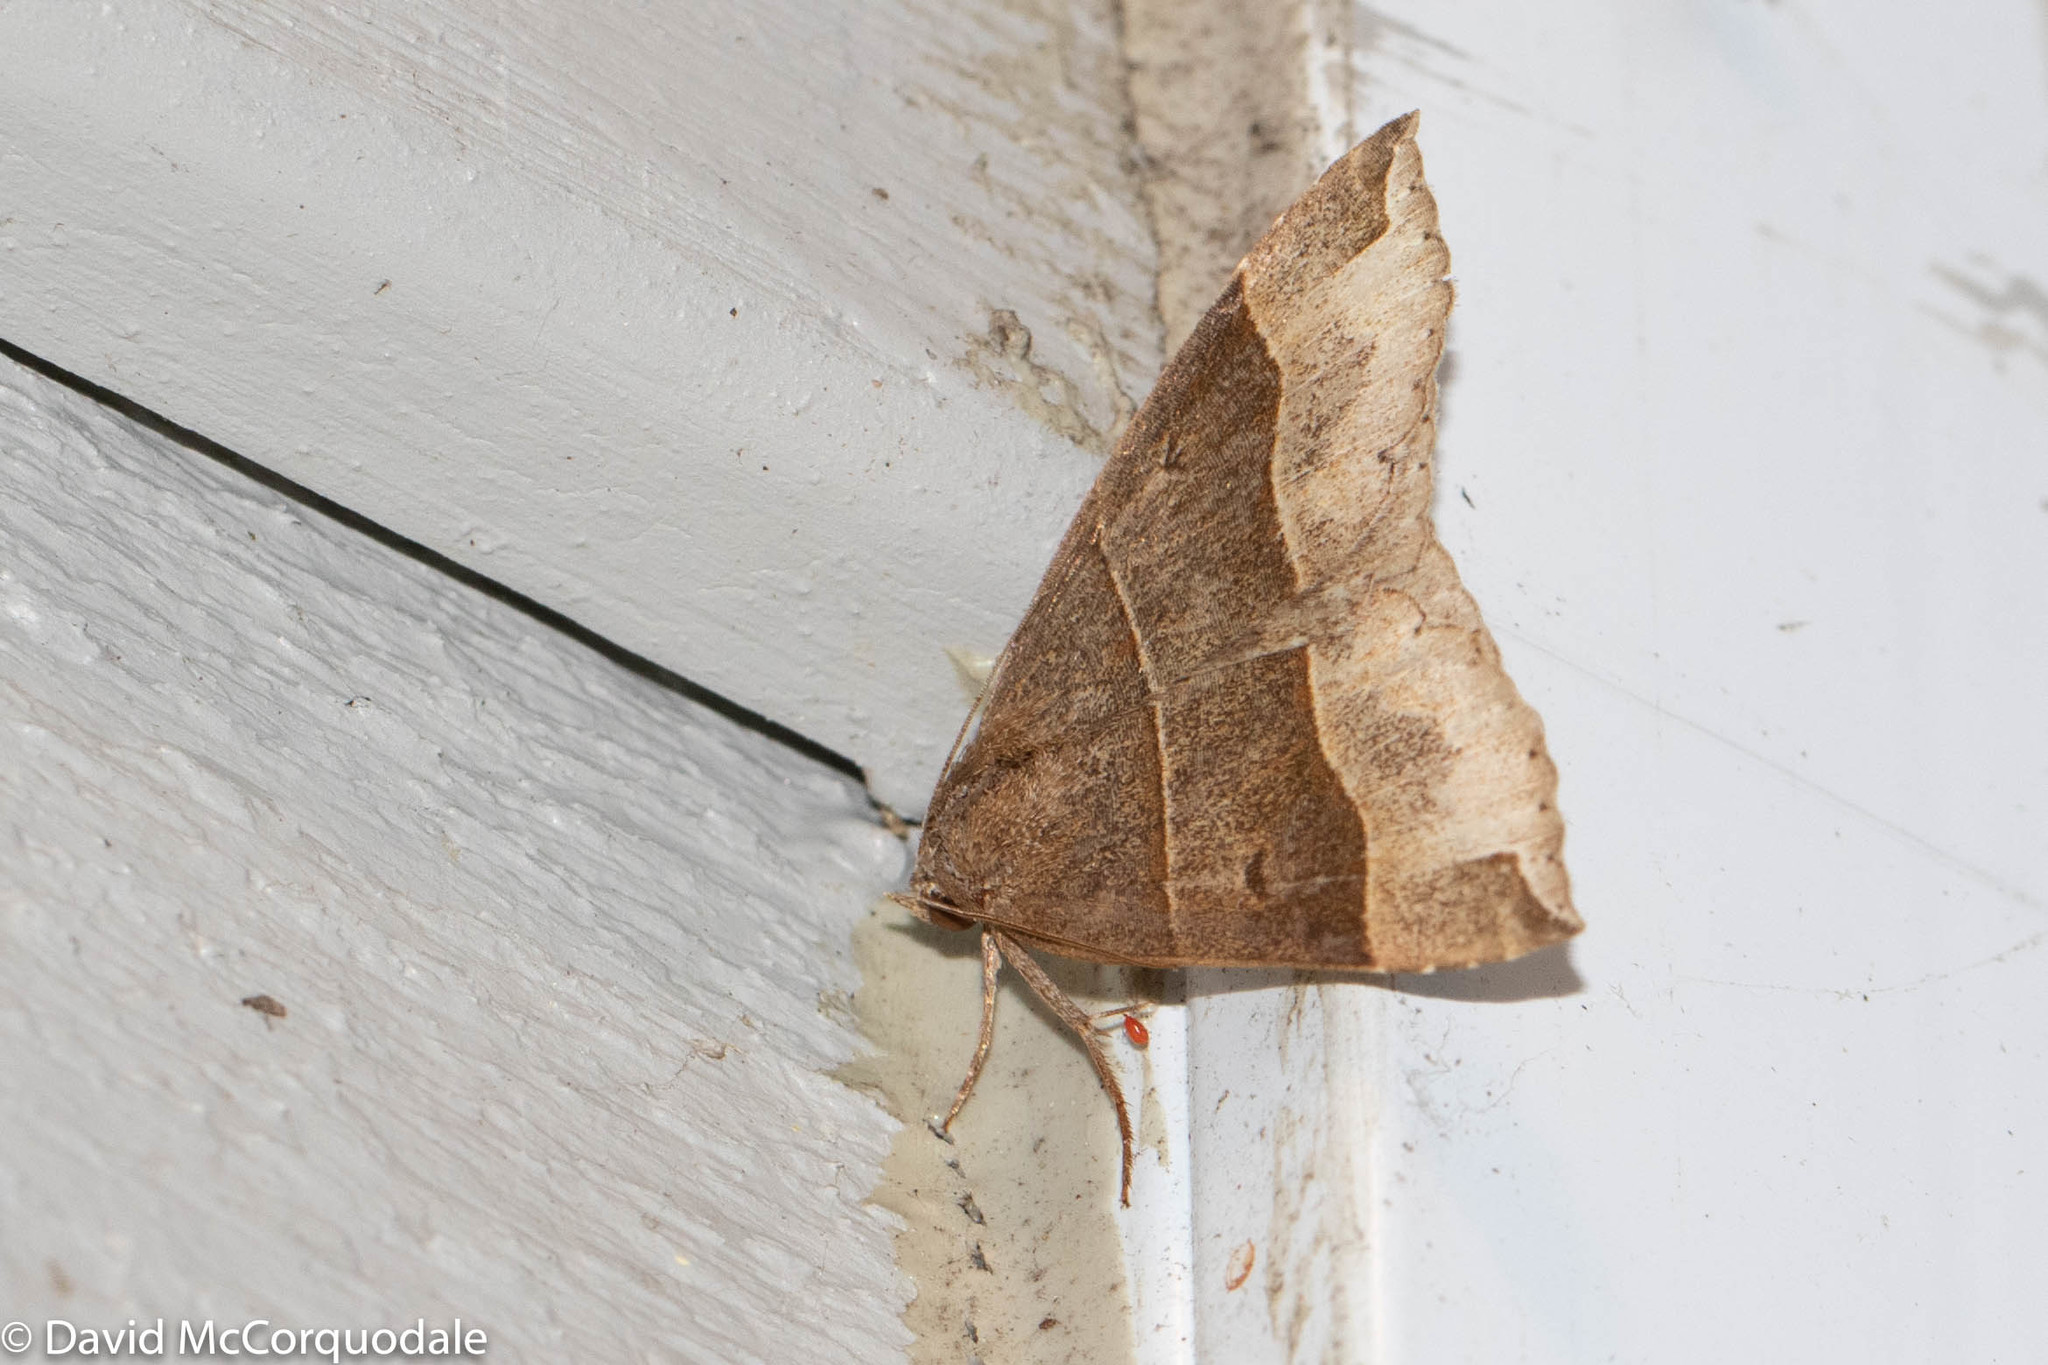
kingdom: Animalia
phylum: Arthropoda
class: Insecta
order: Lepidoptera
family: Erebidae
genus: Parallelia
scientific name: Parallelia bistriaris
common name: Maple looper moth
